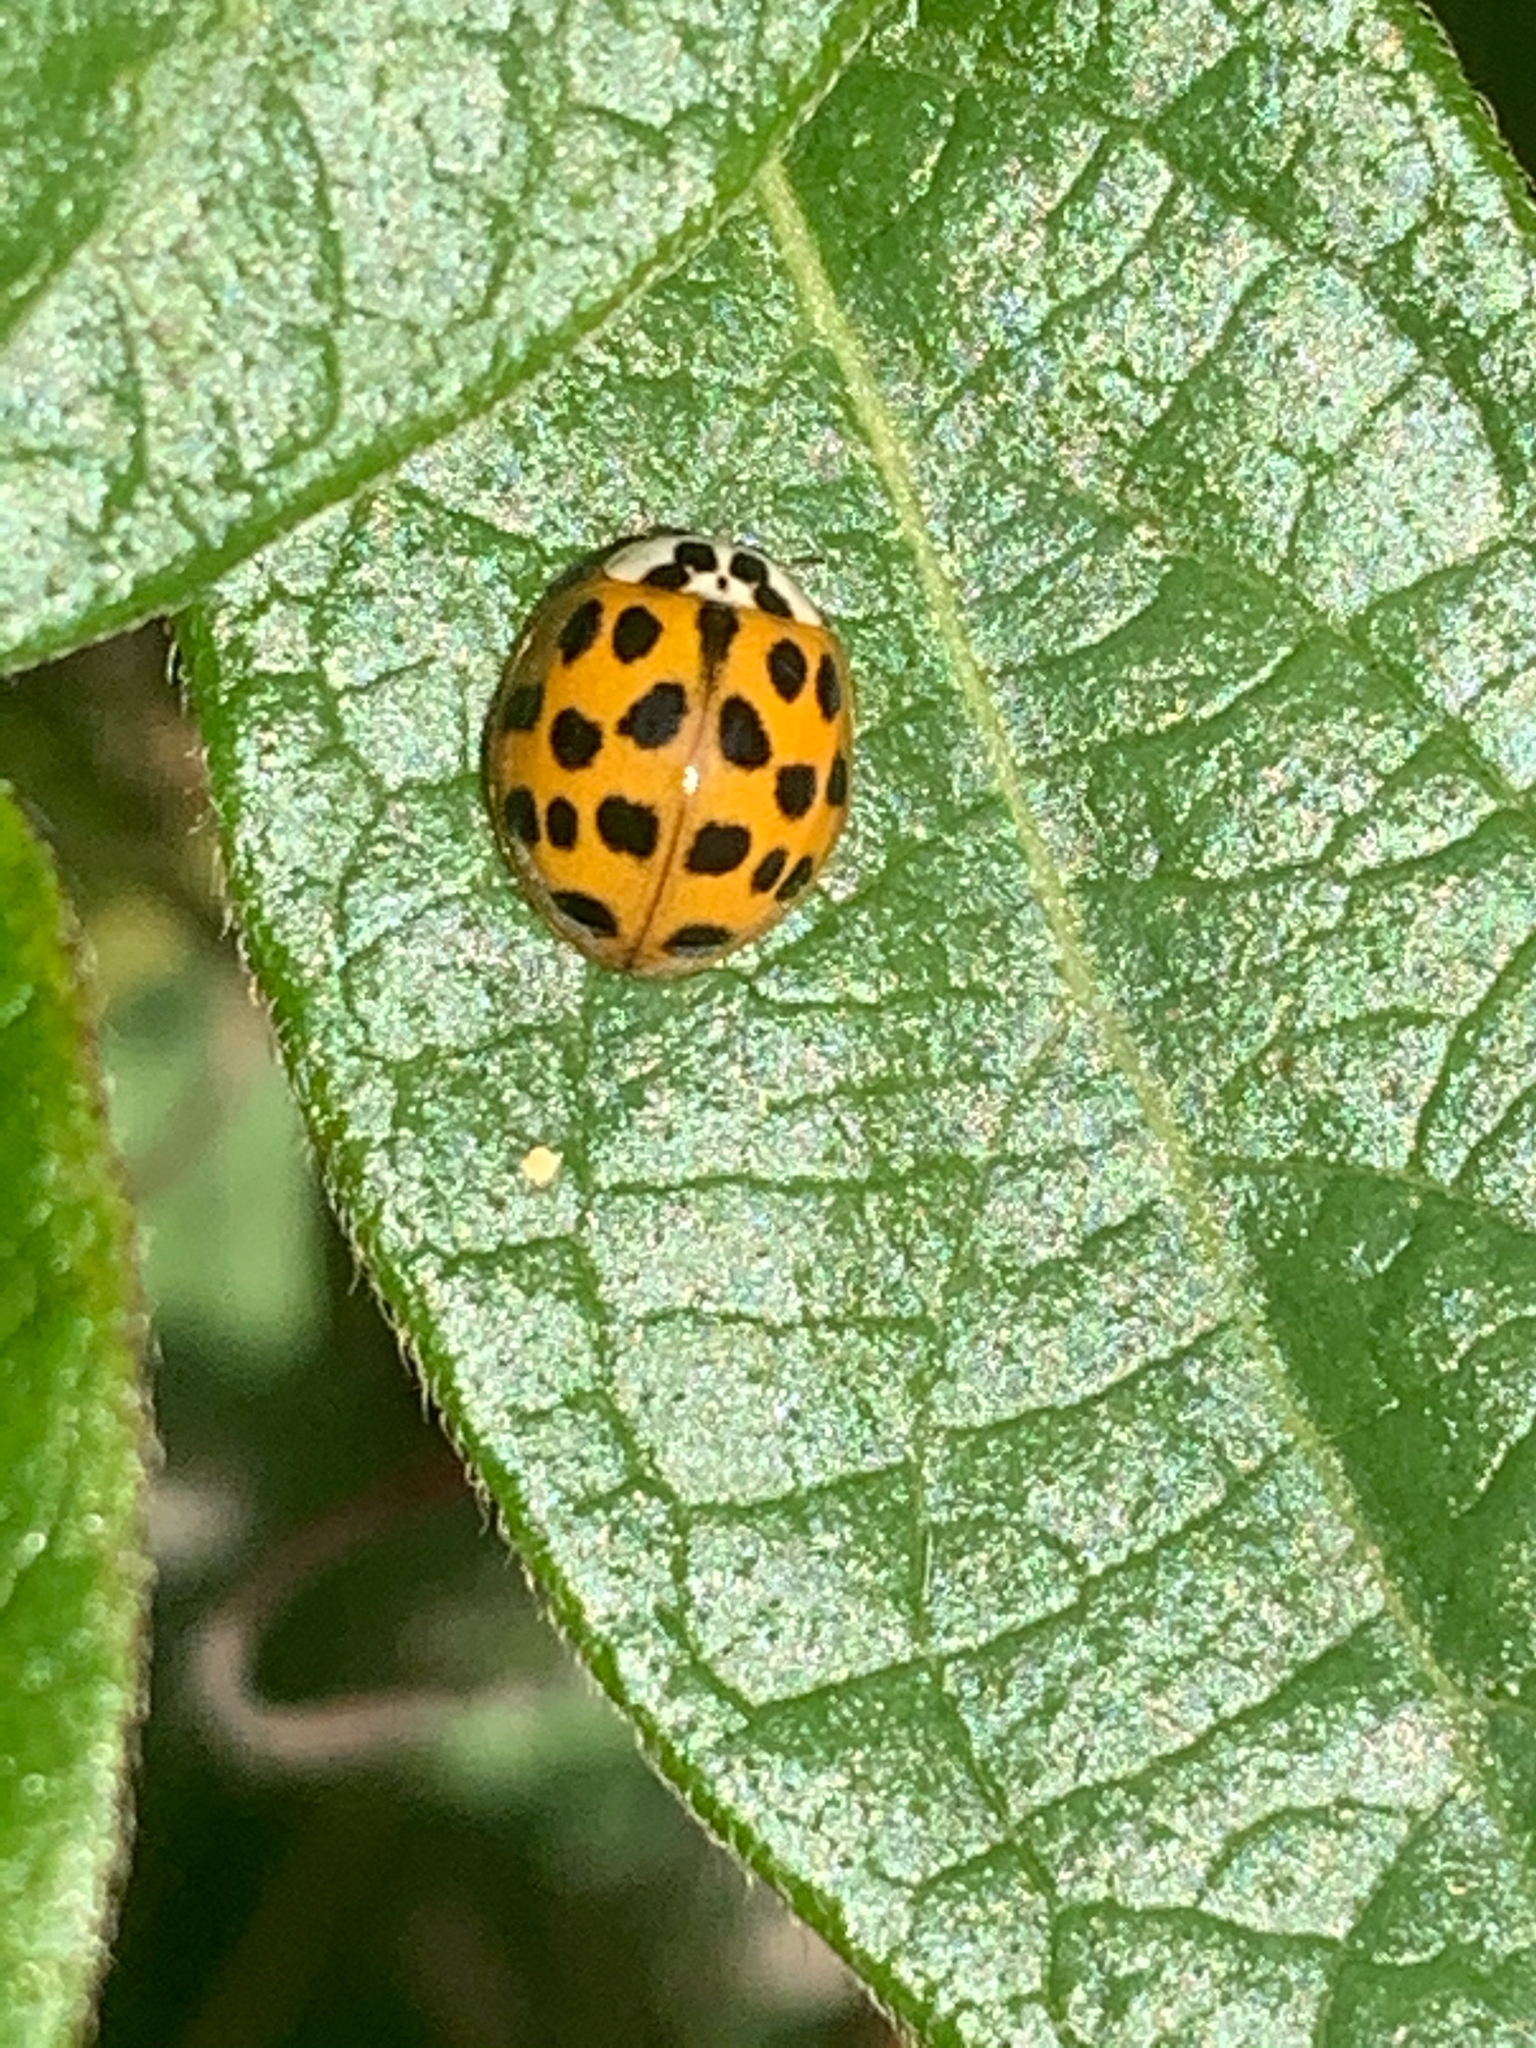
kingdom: Animalia
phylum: Arthropoda
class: Insecta
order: Coleoptera
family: Coccinellidae
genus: Harmonia
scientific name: Harmonia axyridis
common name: Harlequin ladybird
